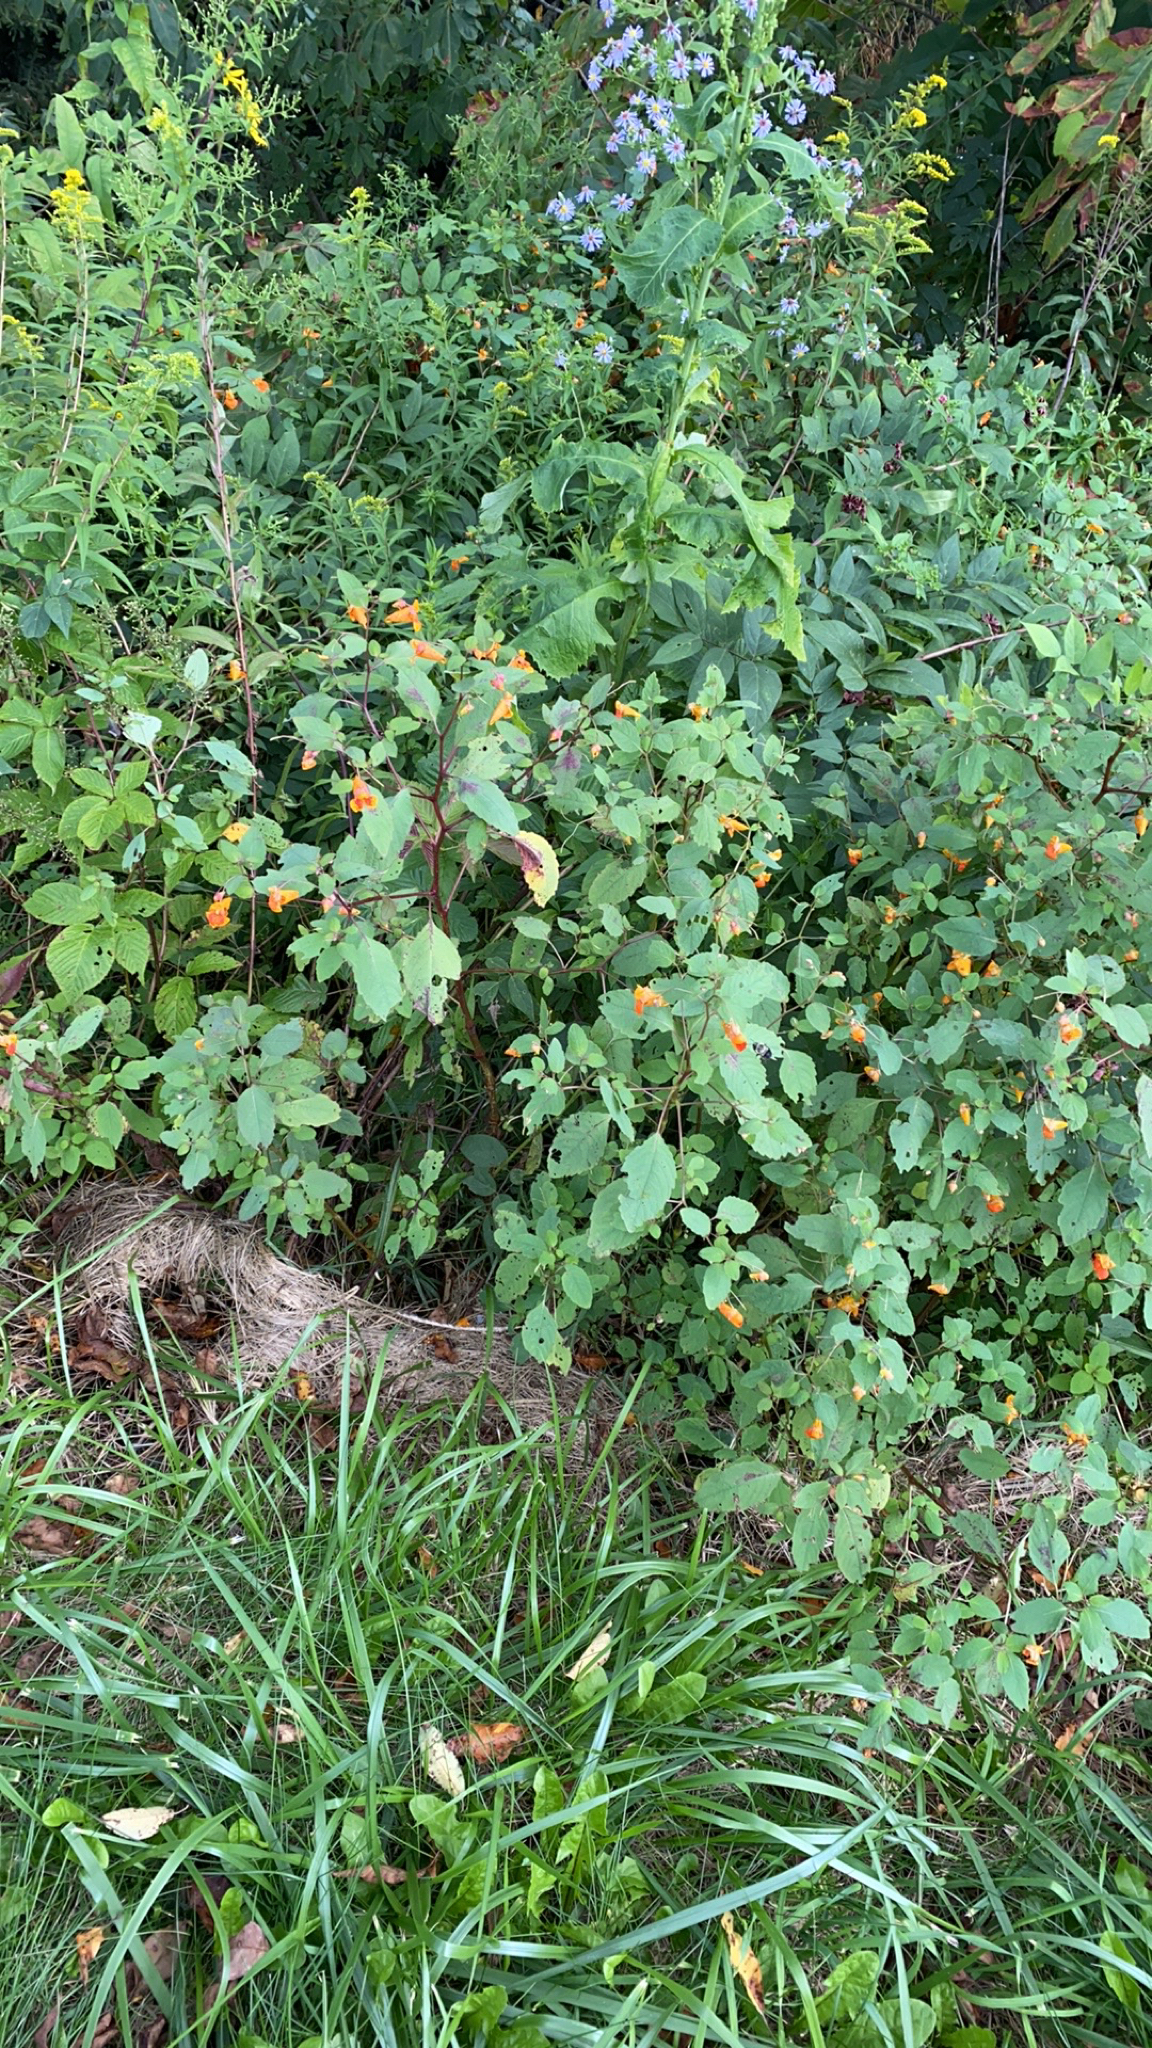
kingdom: Plantae
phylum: Tracheophyta
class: Magnoliopsida
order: Ericales
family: Balsaminaceae
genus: Impatiens
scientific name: Impatiens capensis
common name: Orange balsam
